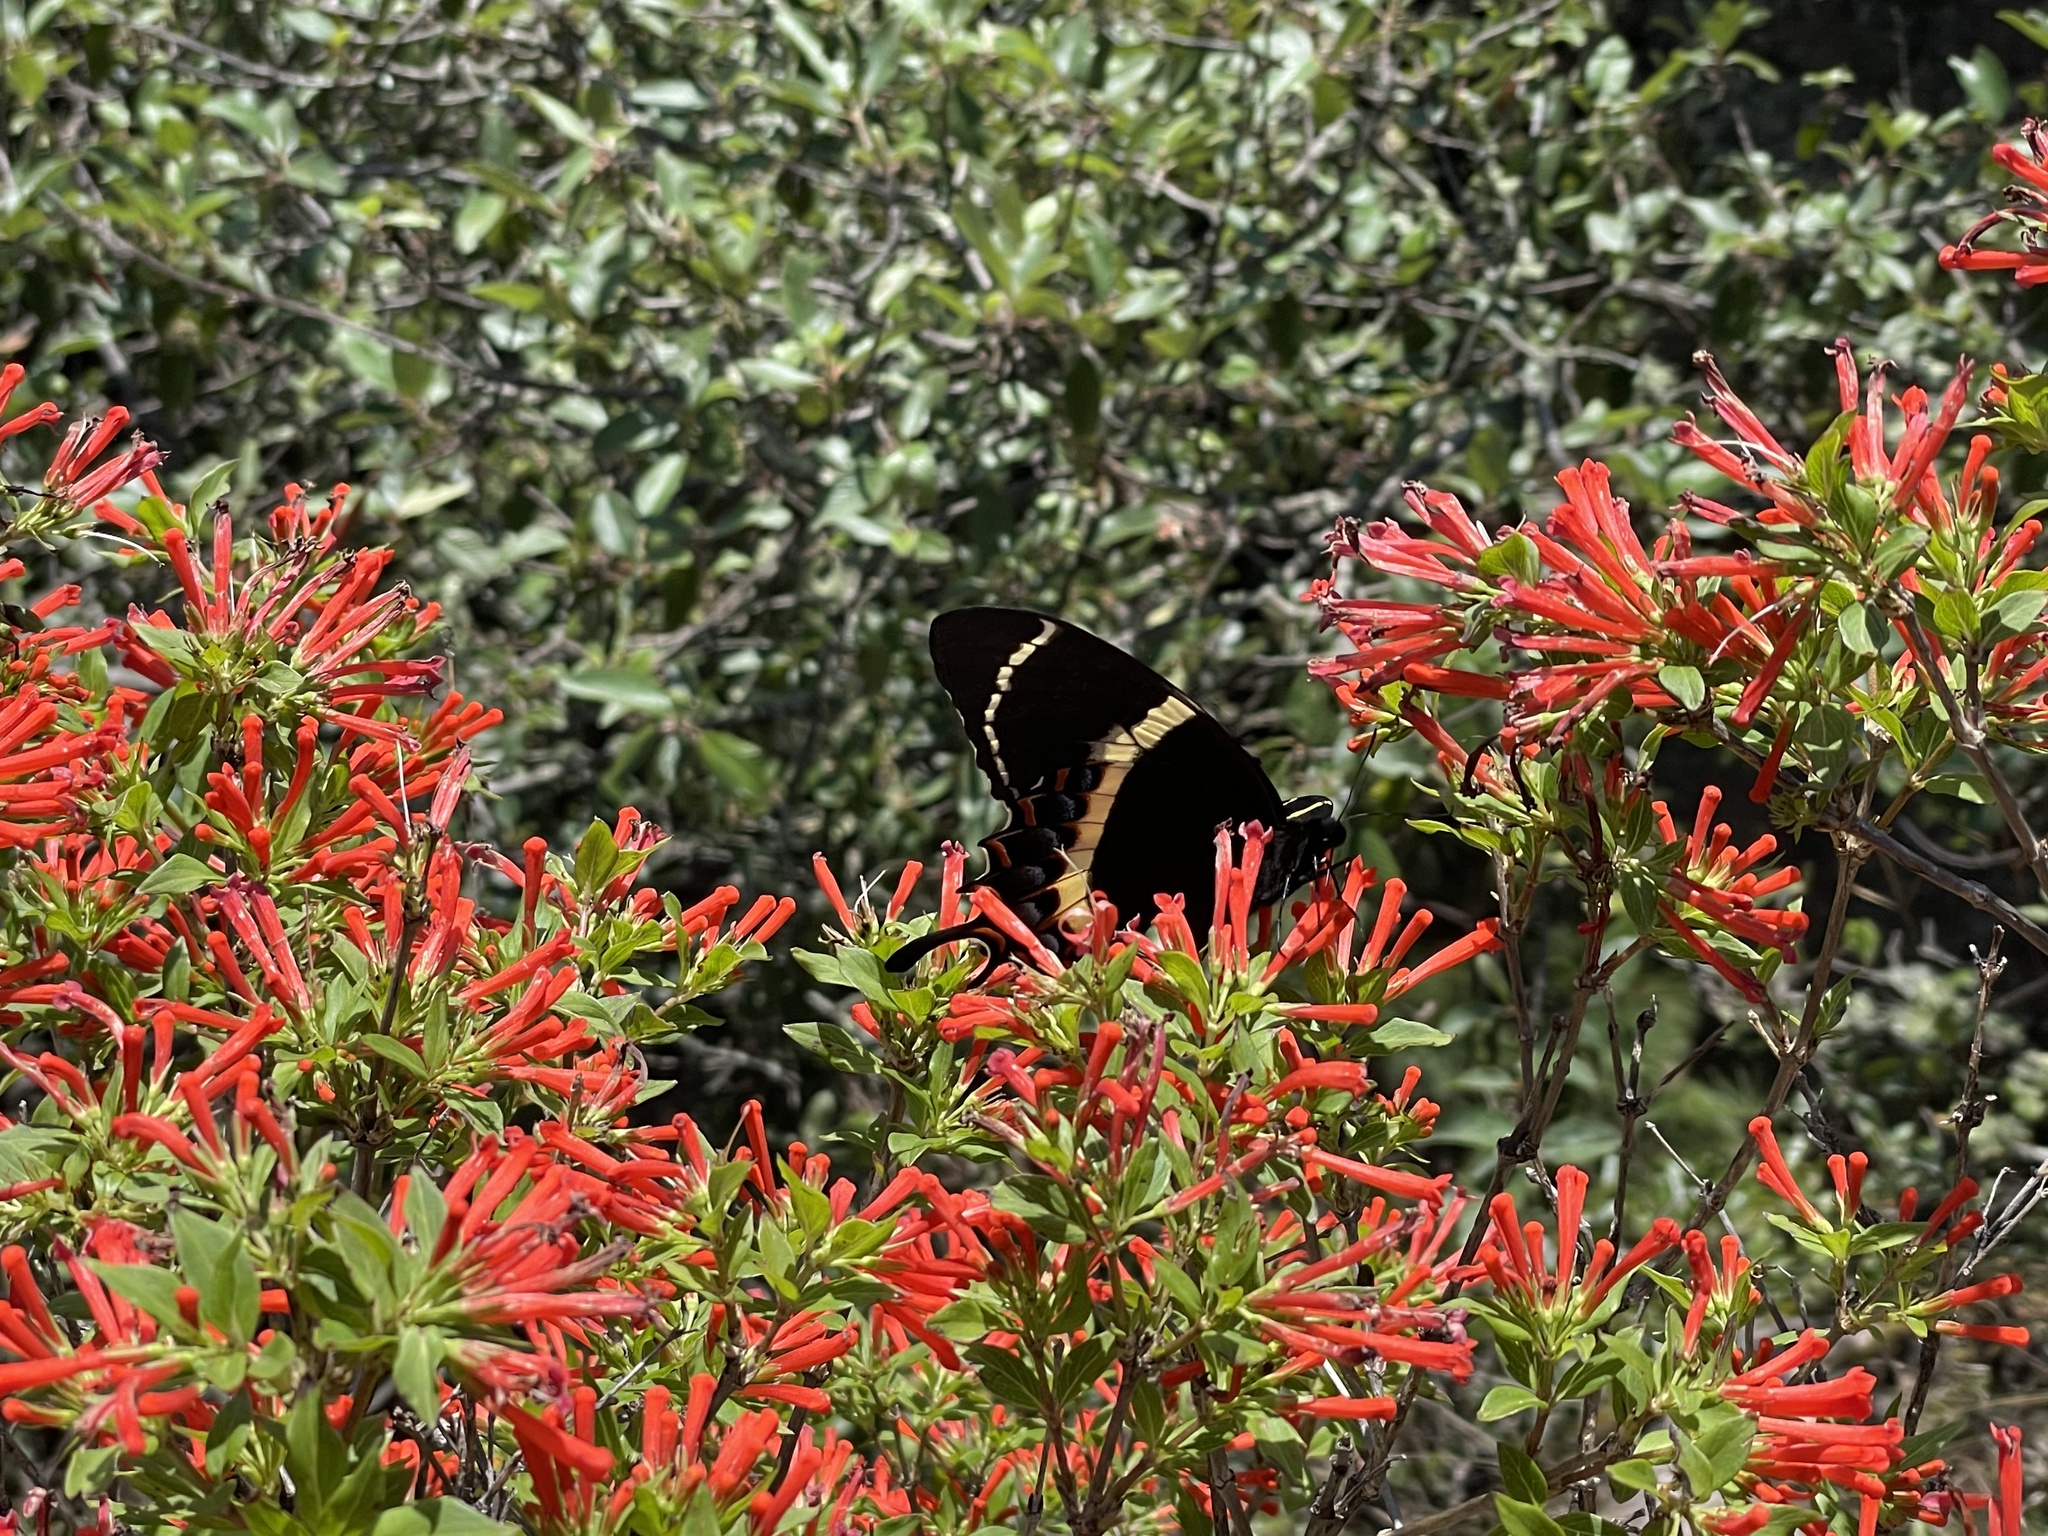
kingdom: Animalia
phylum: Arthropoda
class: Insecta
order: Lepidoptera
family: Papilionidae
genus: Papilio
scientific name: Papilio garamas
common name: Magnificent swallowtail
